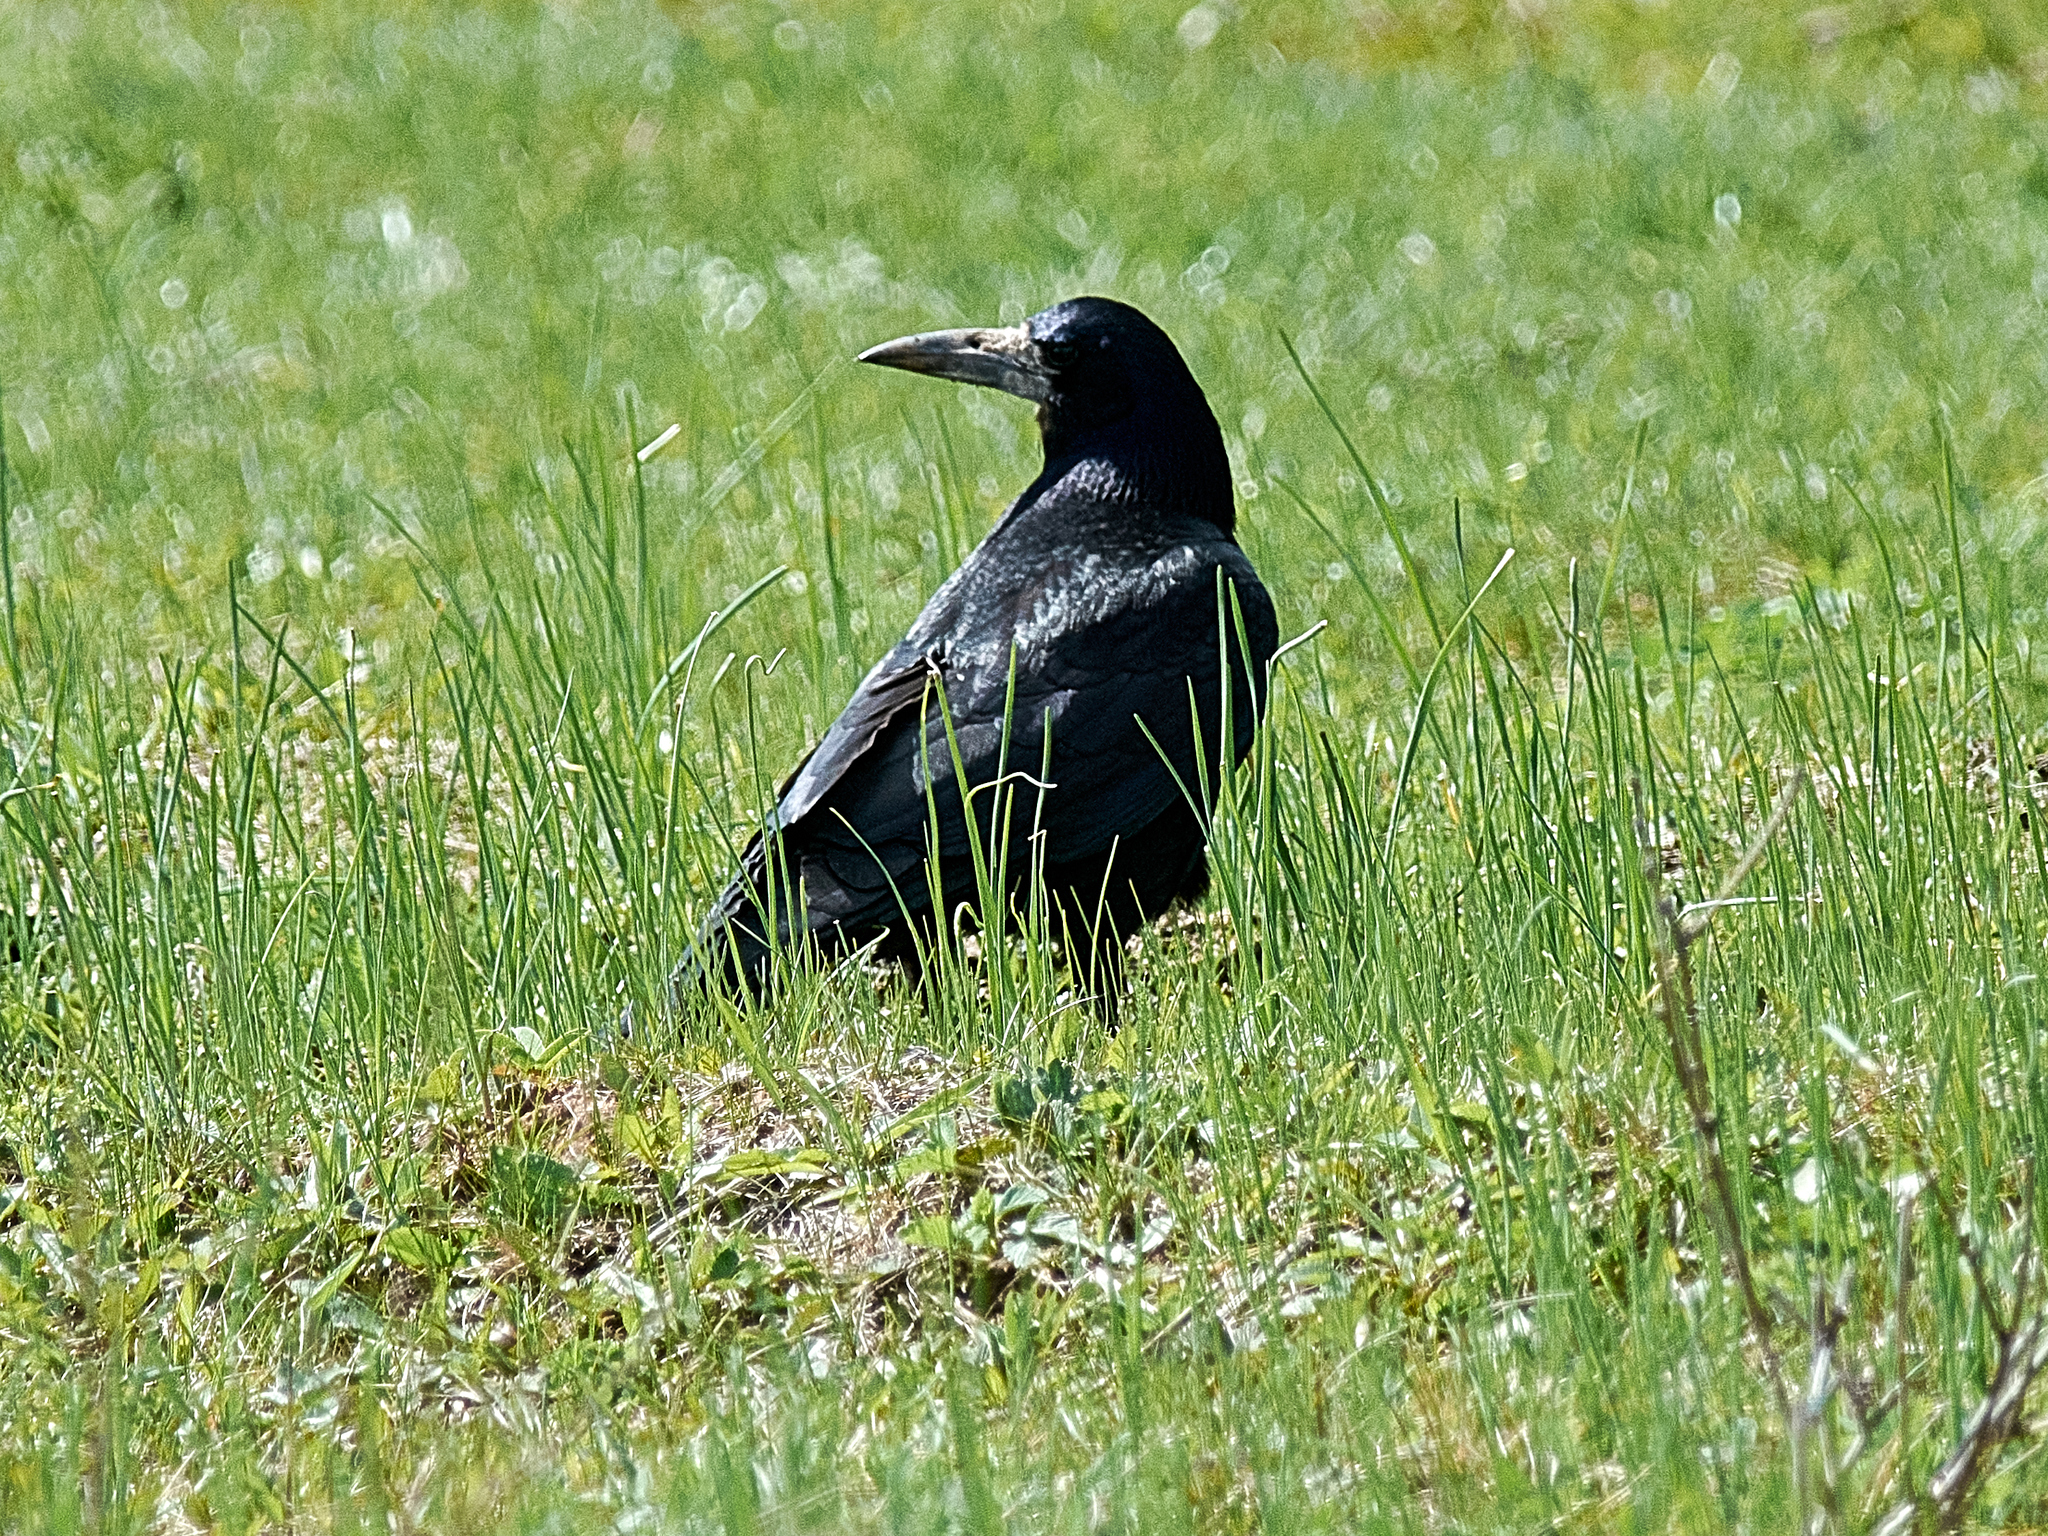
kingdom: Animalia
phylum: Chordata
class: Aves
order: Passeriformes
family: Corvidae
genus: Corvus
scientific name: Corvus frugilegus
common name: Rook
